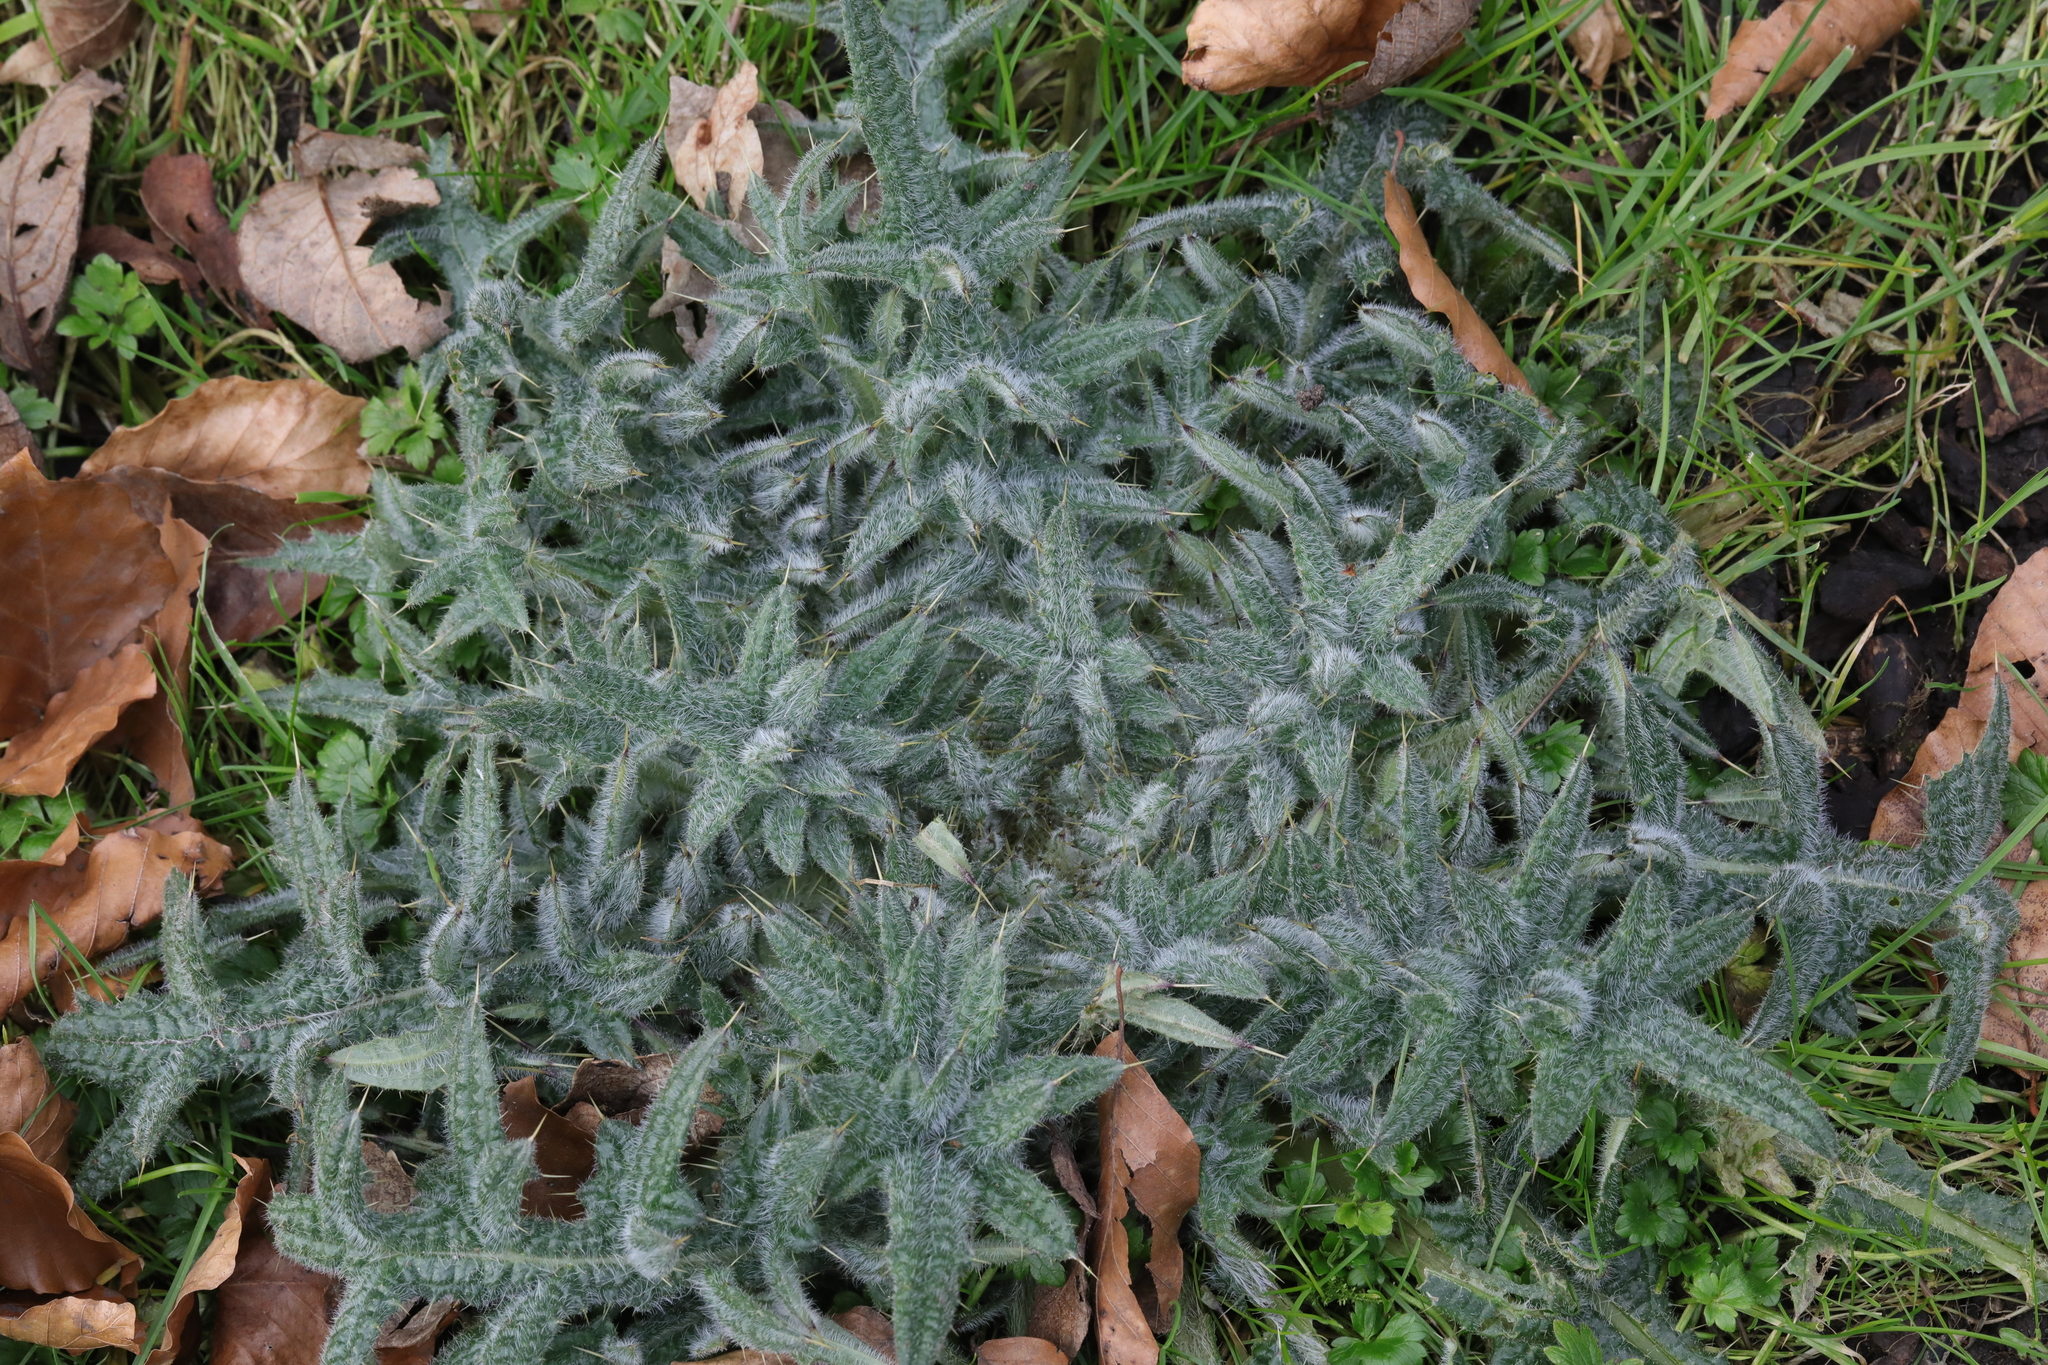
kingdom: Plantae
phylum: Tracheophyta
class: Magnoliopsida
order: Asterales
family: Asteraceae
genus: Cirsium
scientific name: Cirsium vulgare
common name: Bull thistle
